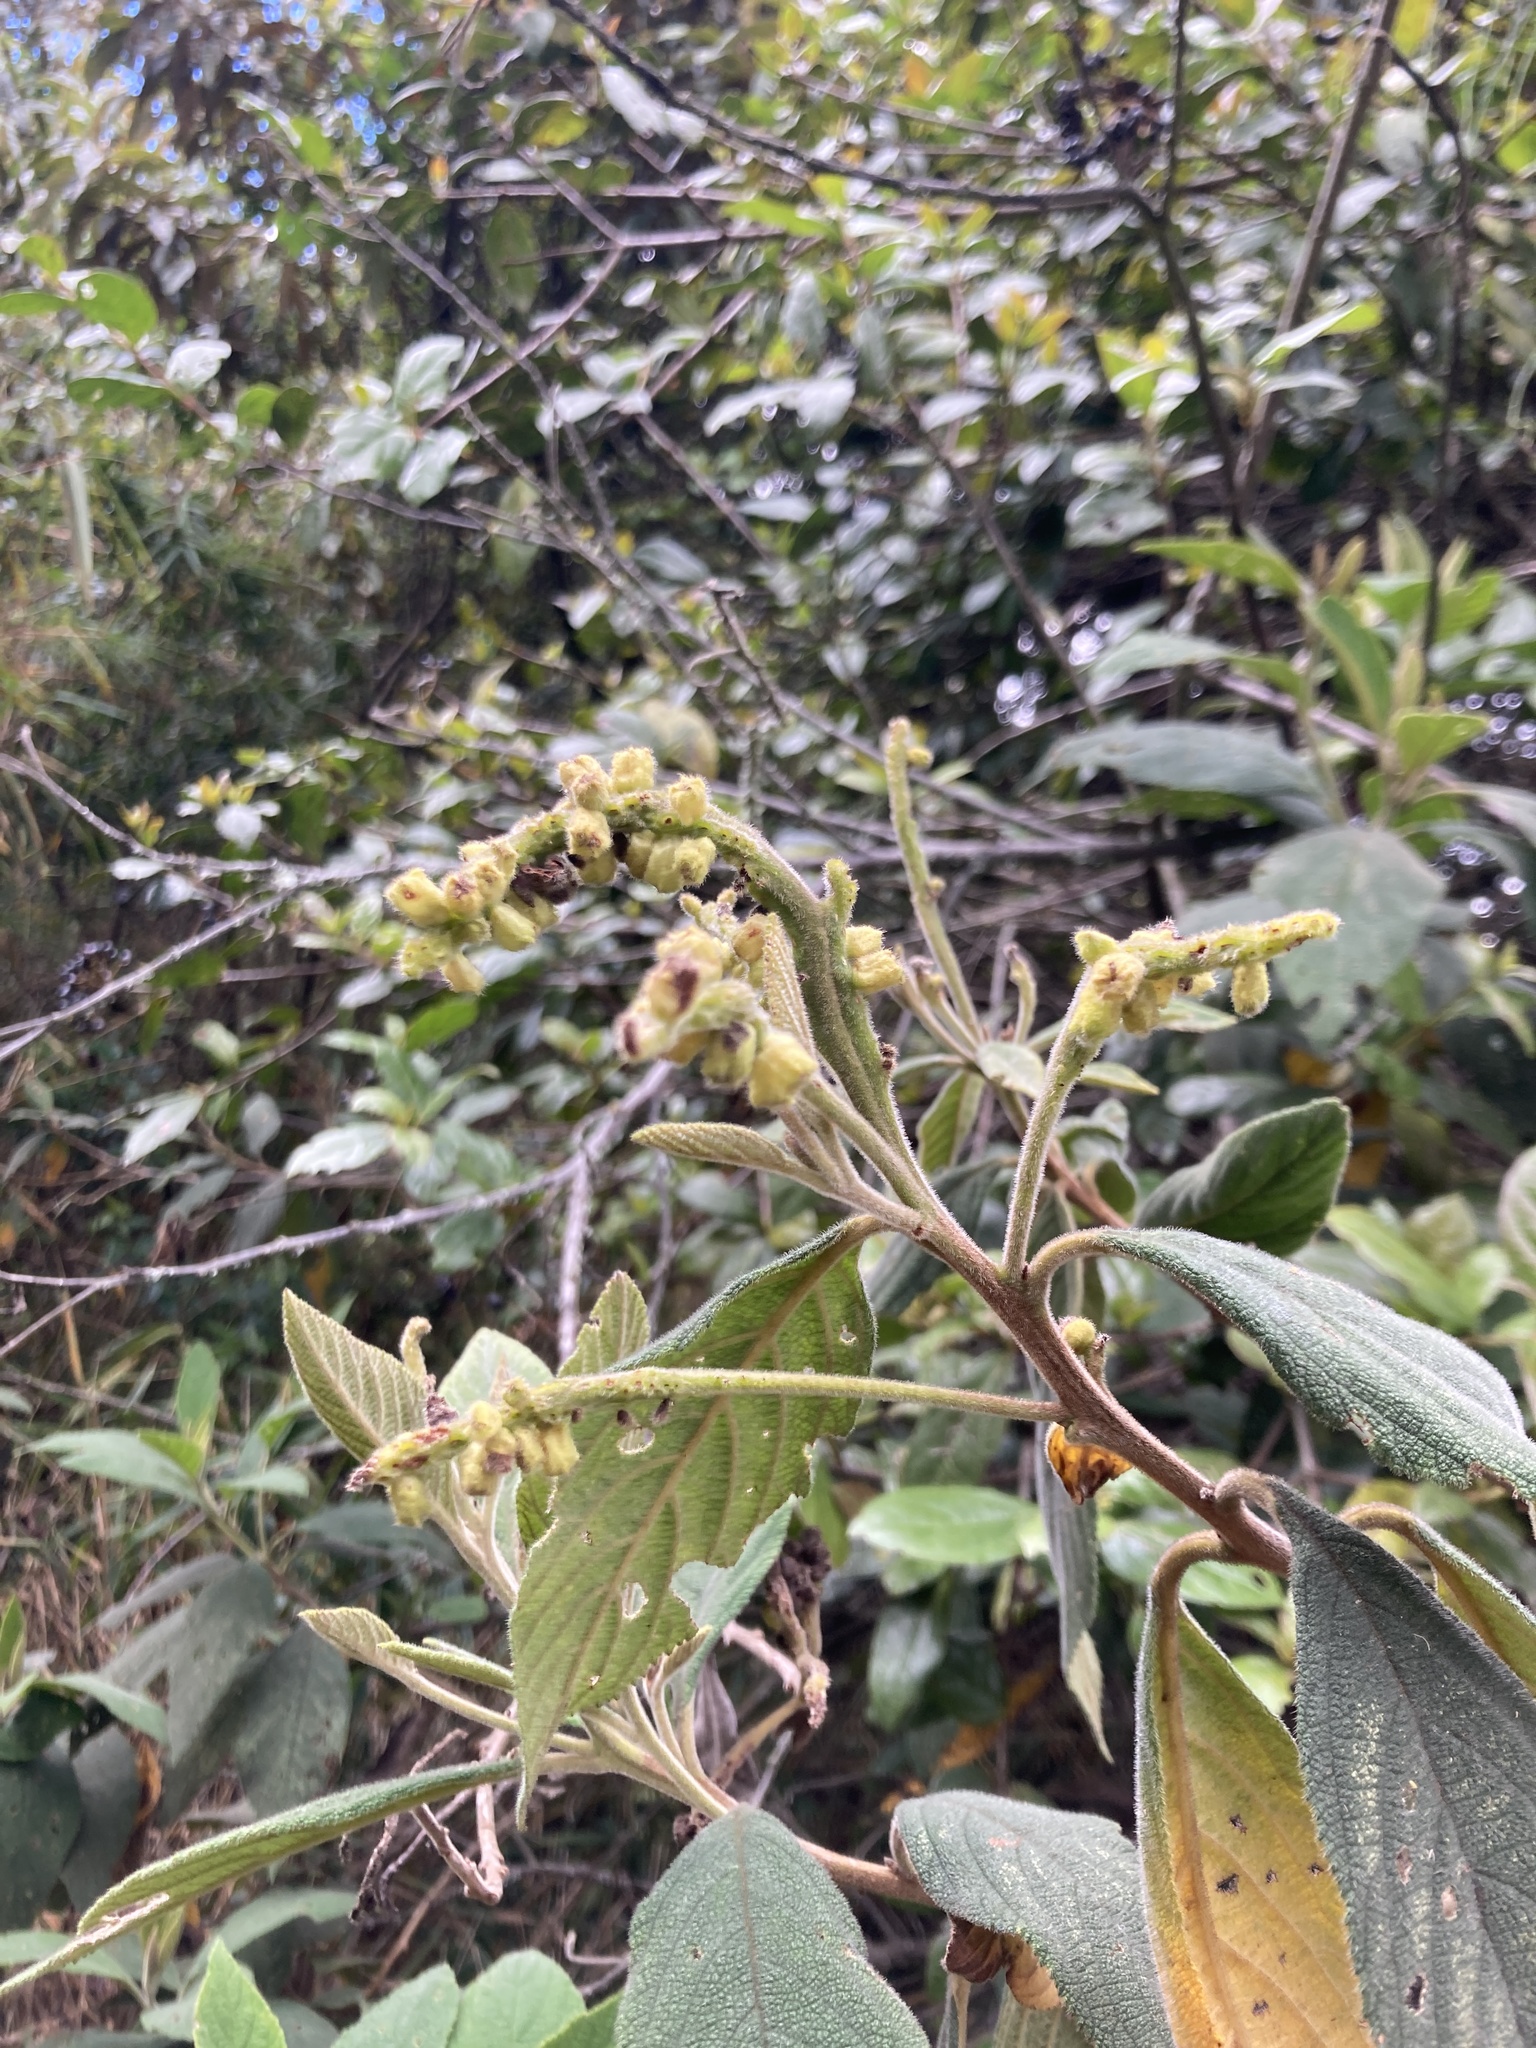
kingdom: Plantae
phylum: Tracheophyta
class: Magnoliopsida
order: Boraginales
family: Cordiaceae
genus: Varronia
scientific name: Varronia cylindrostachya
